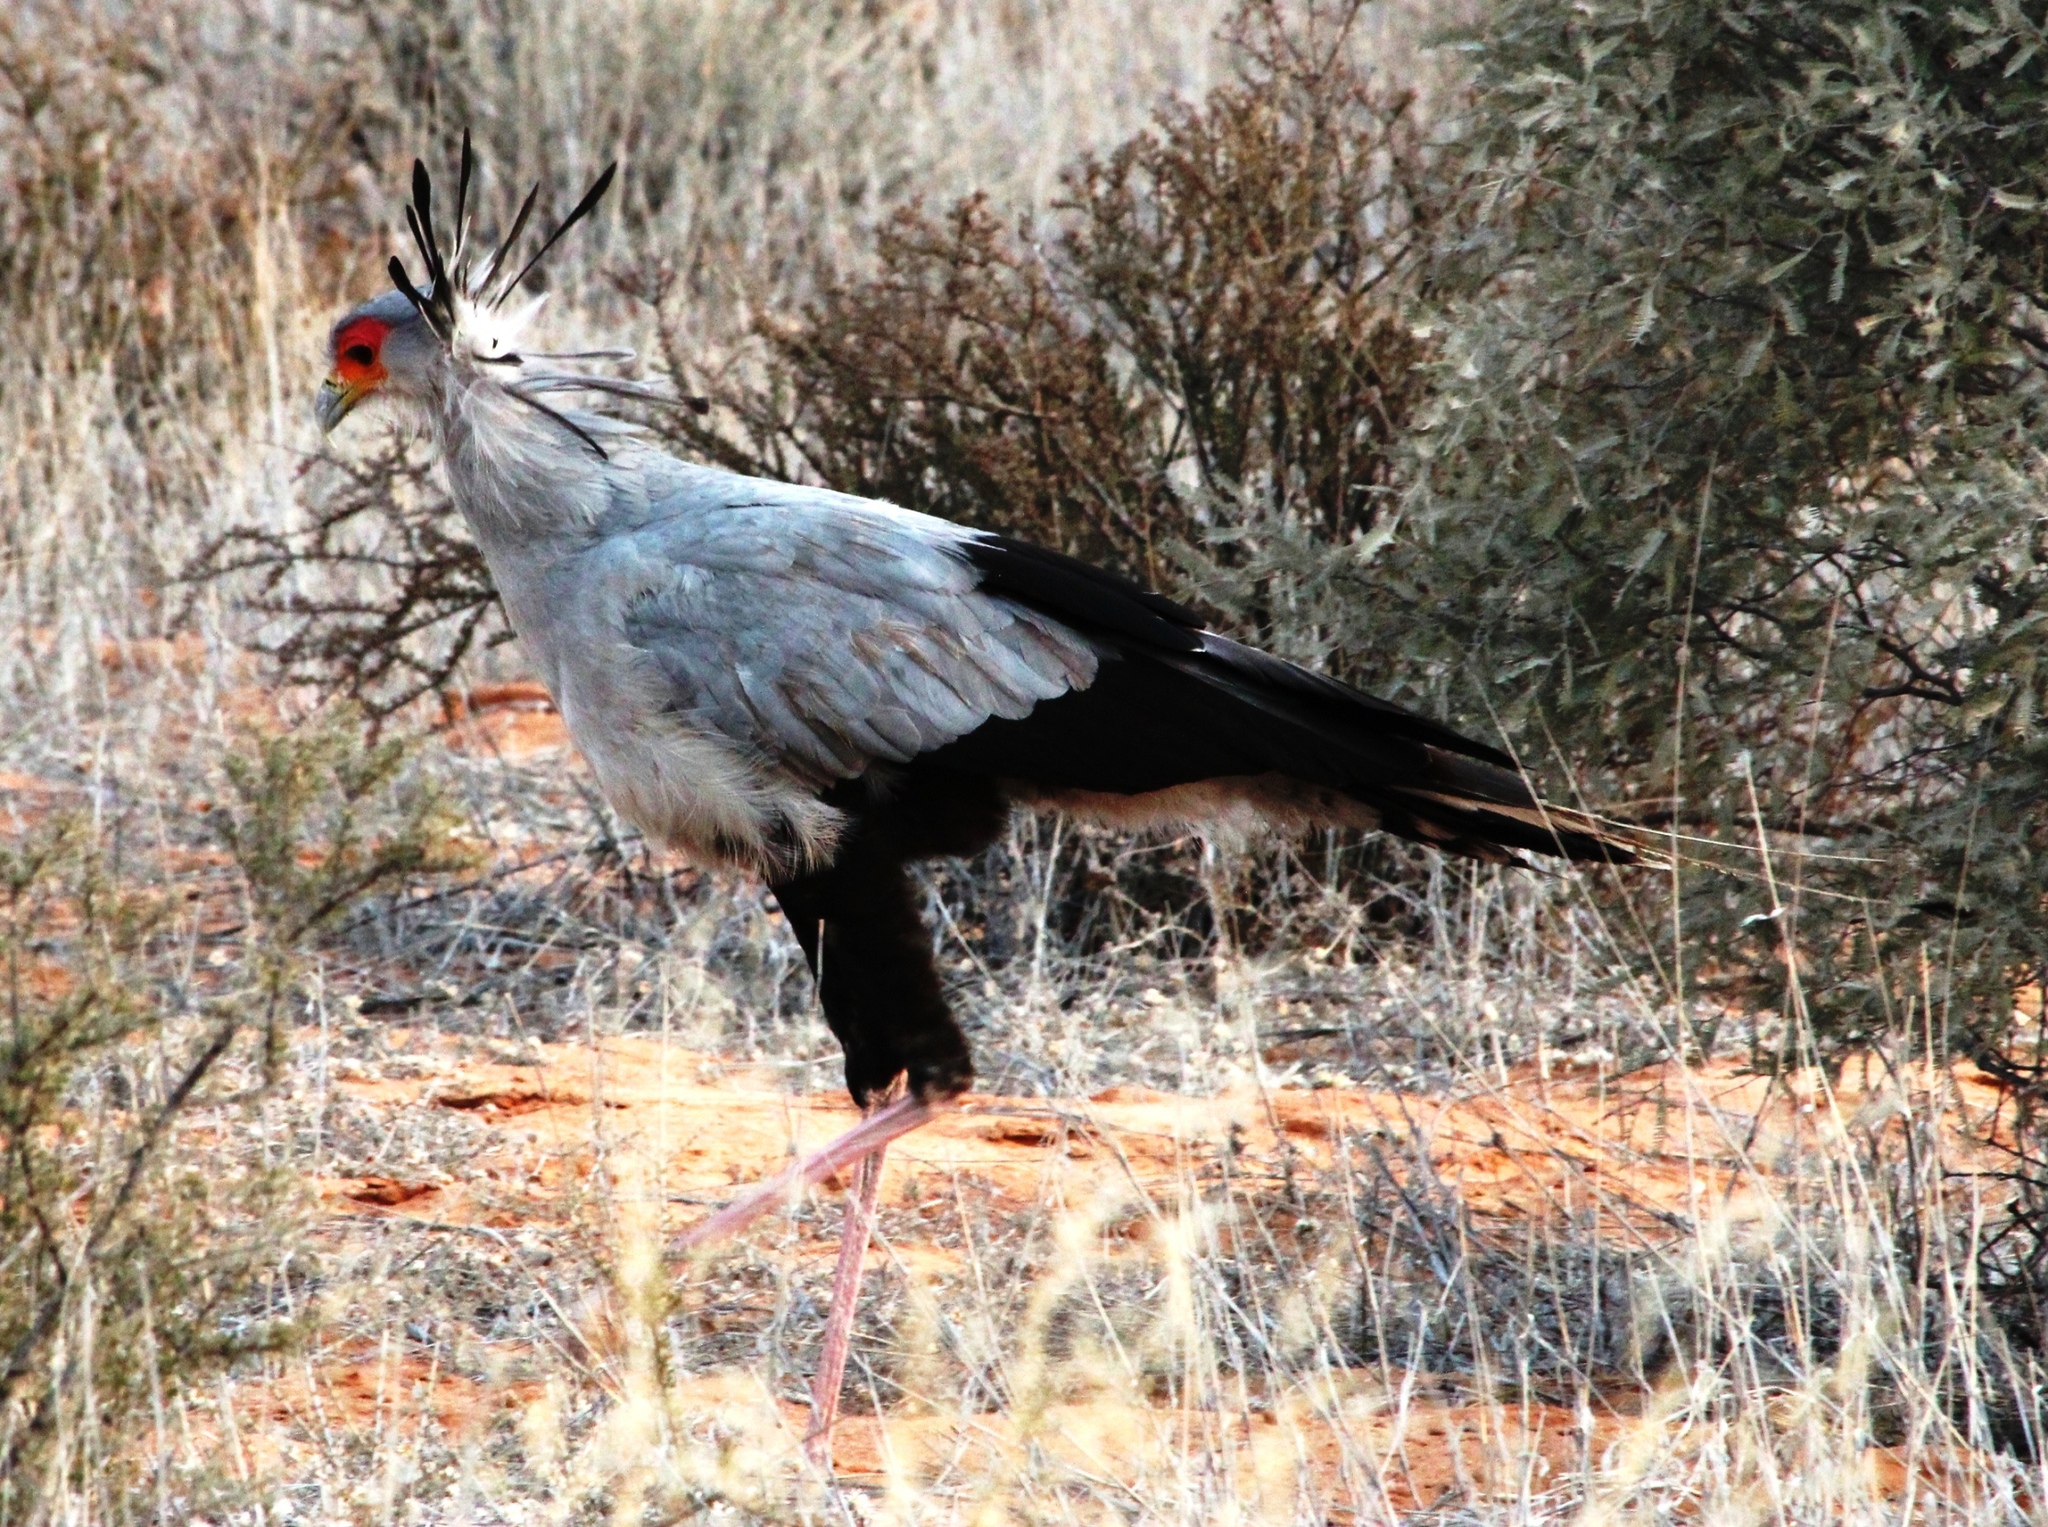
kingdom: Animalia
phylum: Chordata
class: Aves
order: Accipitriformes
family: Sagittariidae
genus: Sagittarius
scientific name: Sagittarius serpentarius
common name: Secretarybird
